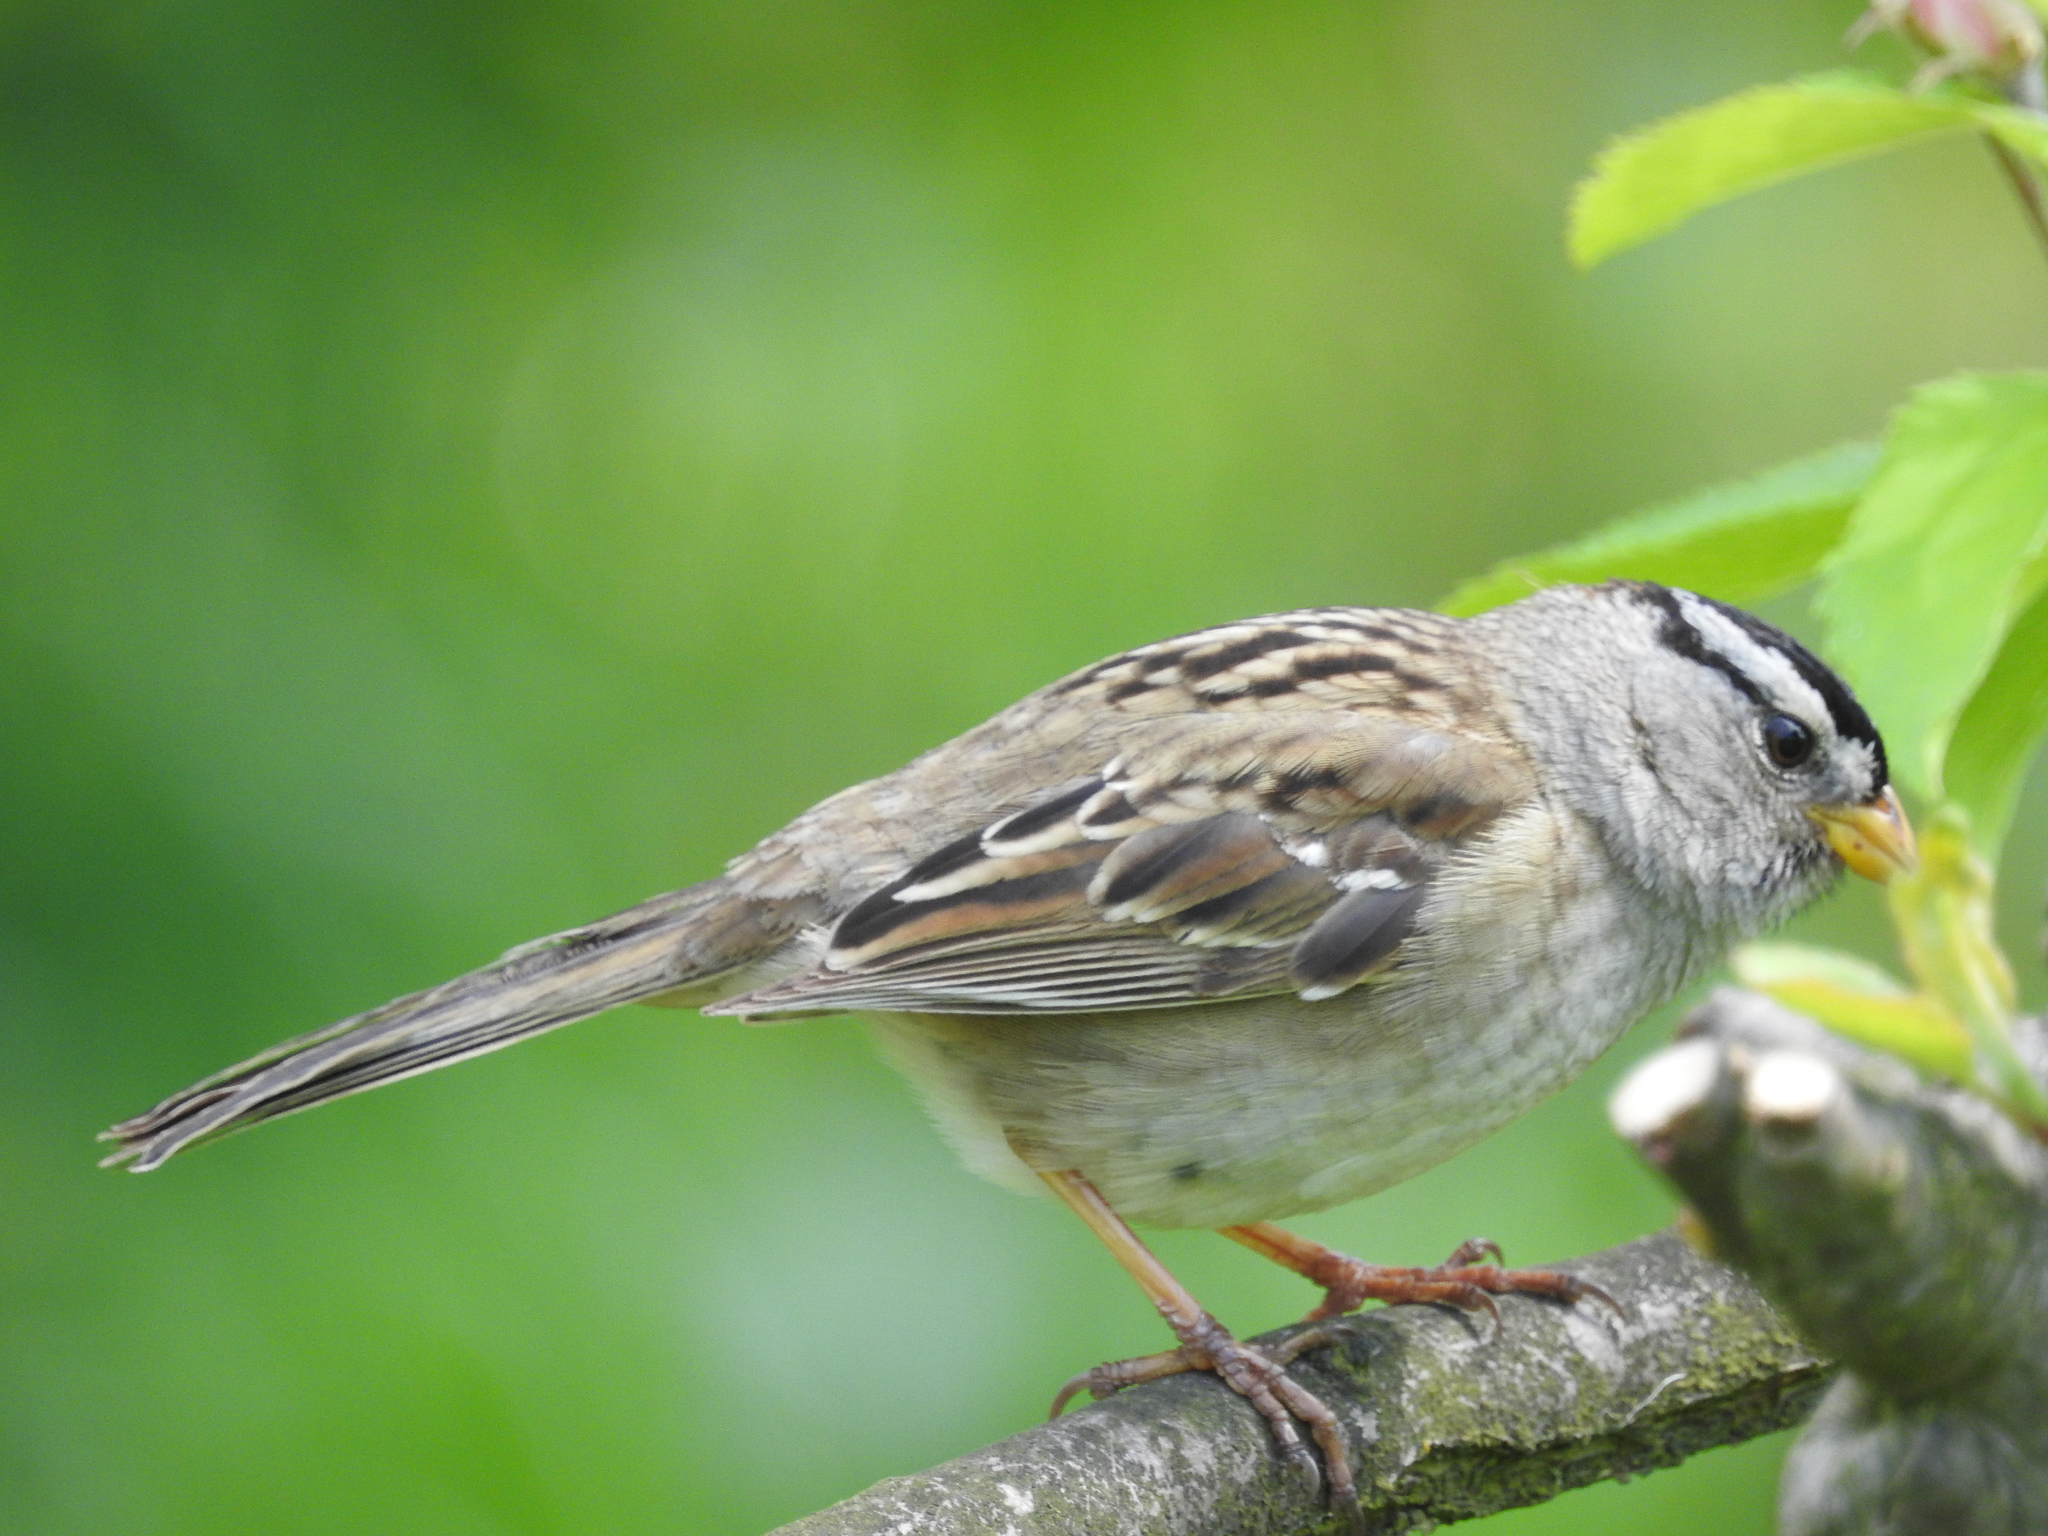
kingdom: Animalia
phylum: Chordata
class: Aves
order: Passeriformes
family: Passerellidae
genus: Zonotrichia
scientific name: Zonotrichia leucophrys
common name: White-crowned sparrow
